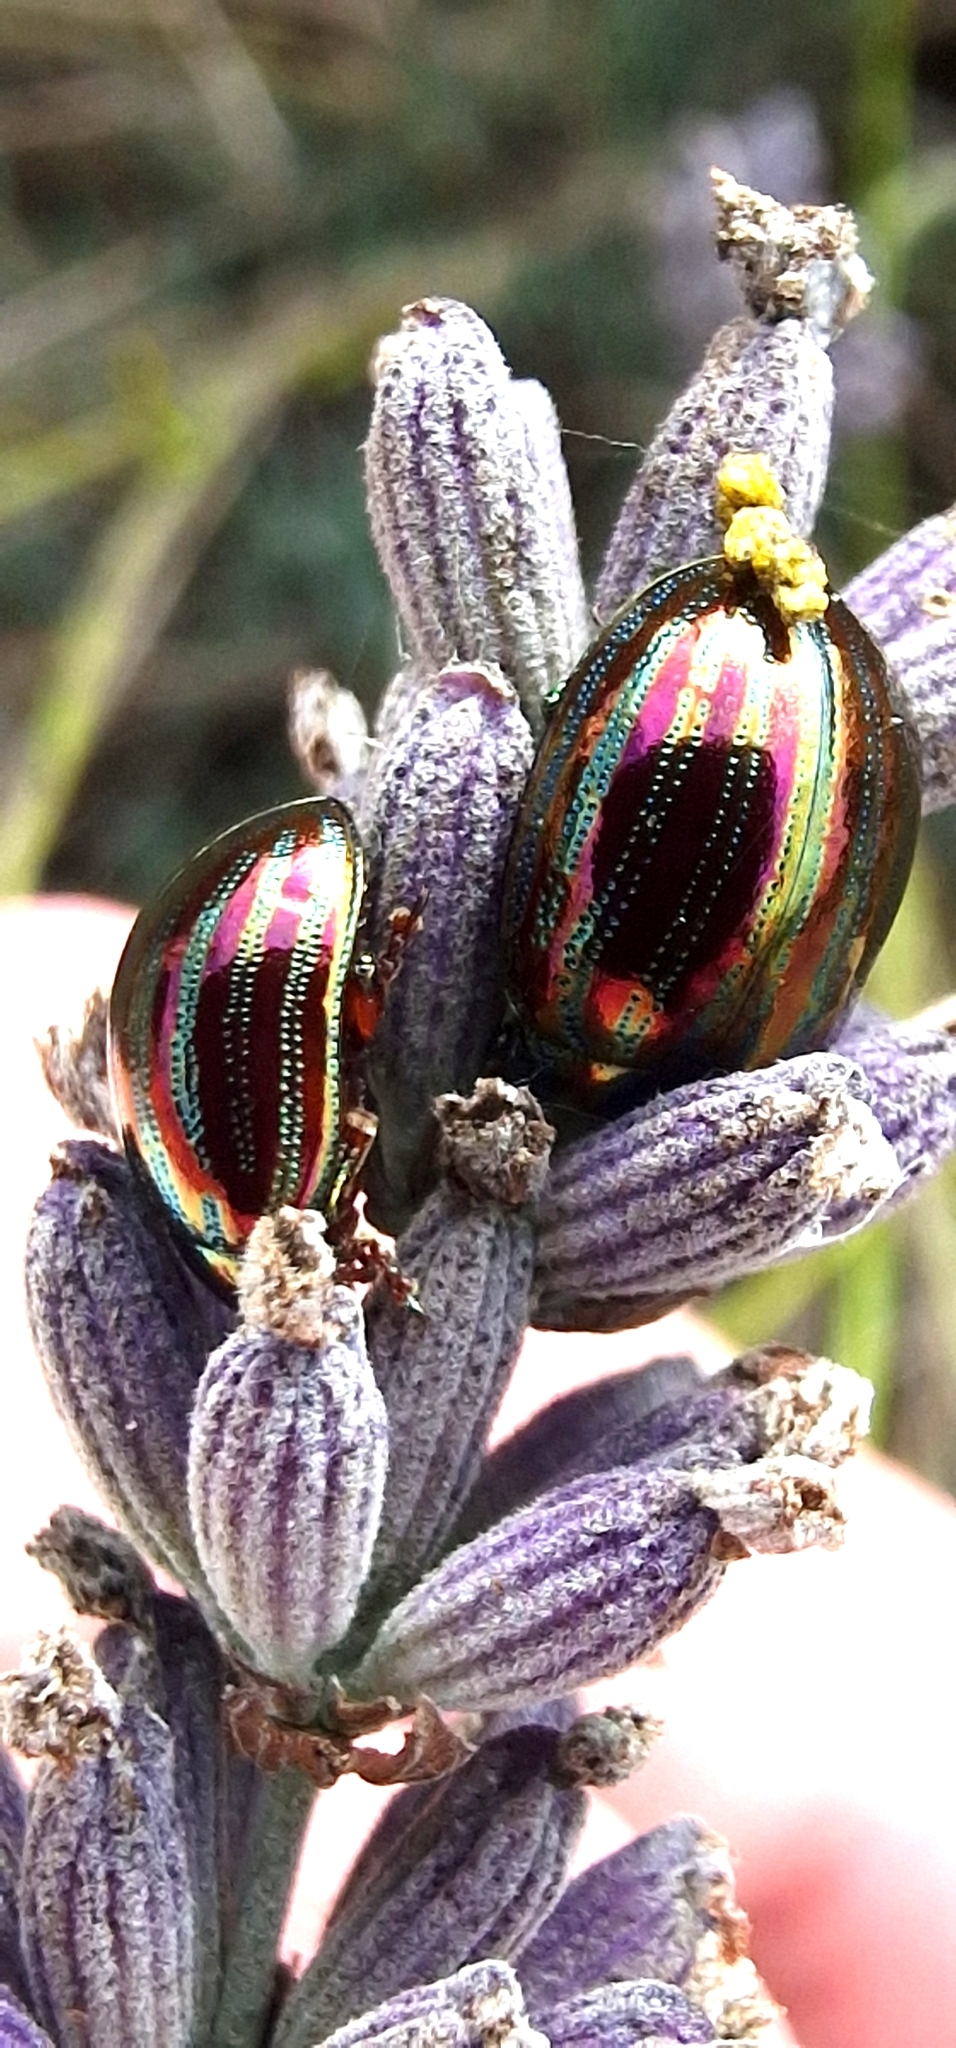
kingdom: Animalia
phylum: Arthropoda
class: Insecta
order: Coleoptera
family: Chrysomelidae
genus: Chrysolina
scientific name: Chrysolina americana
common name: Rosemary beetle
